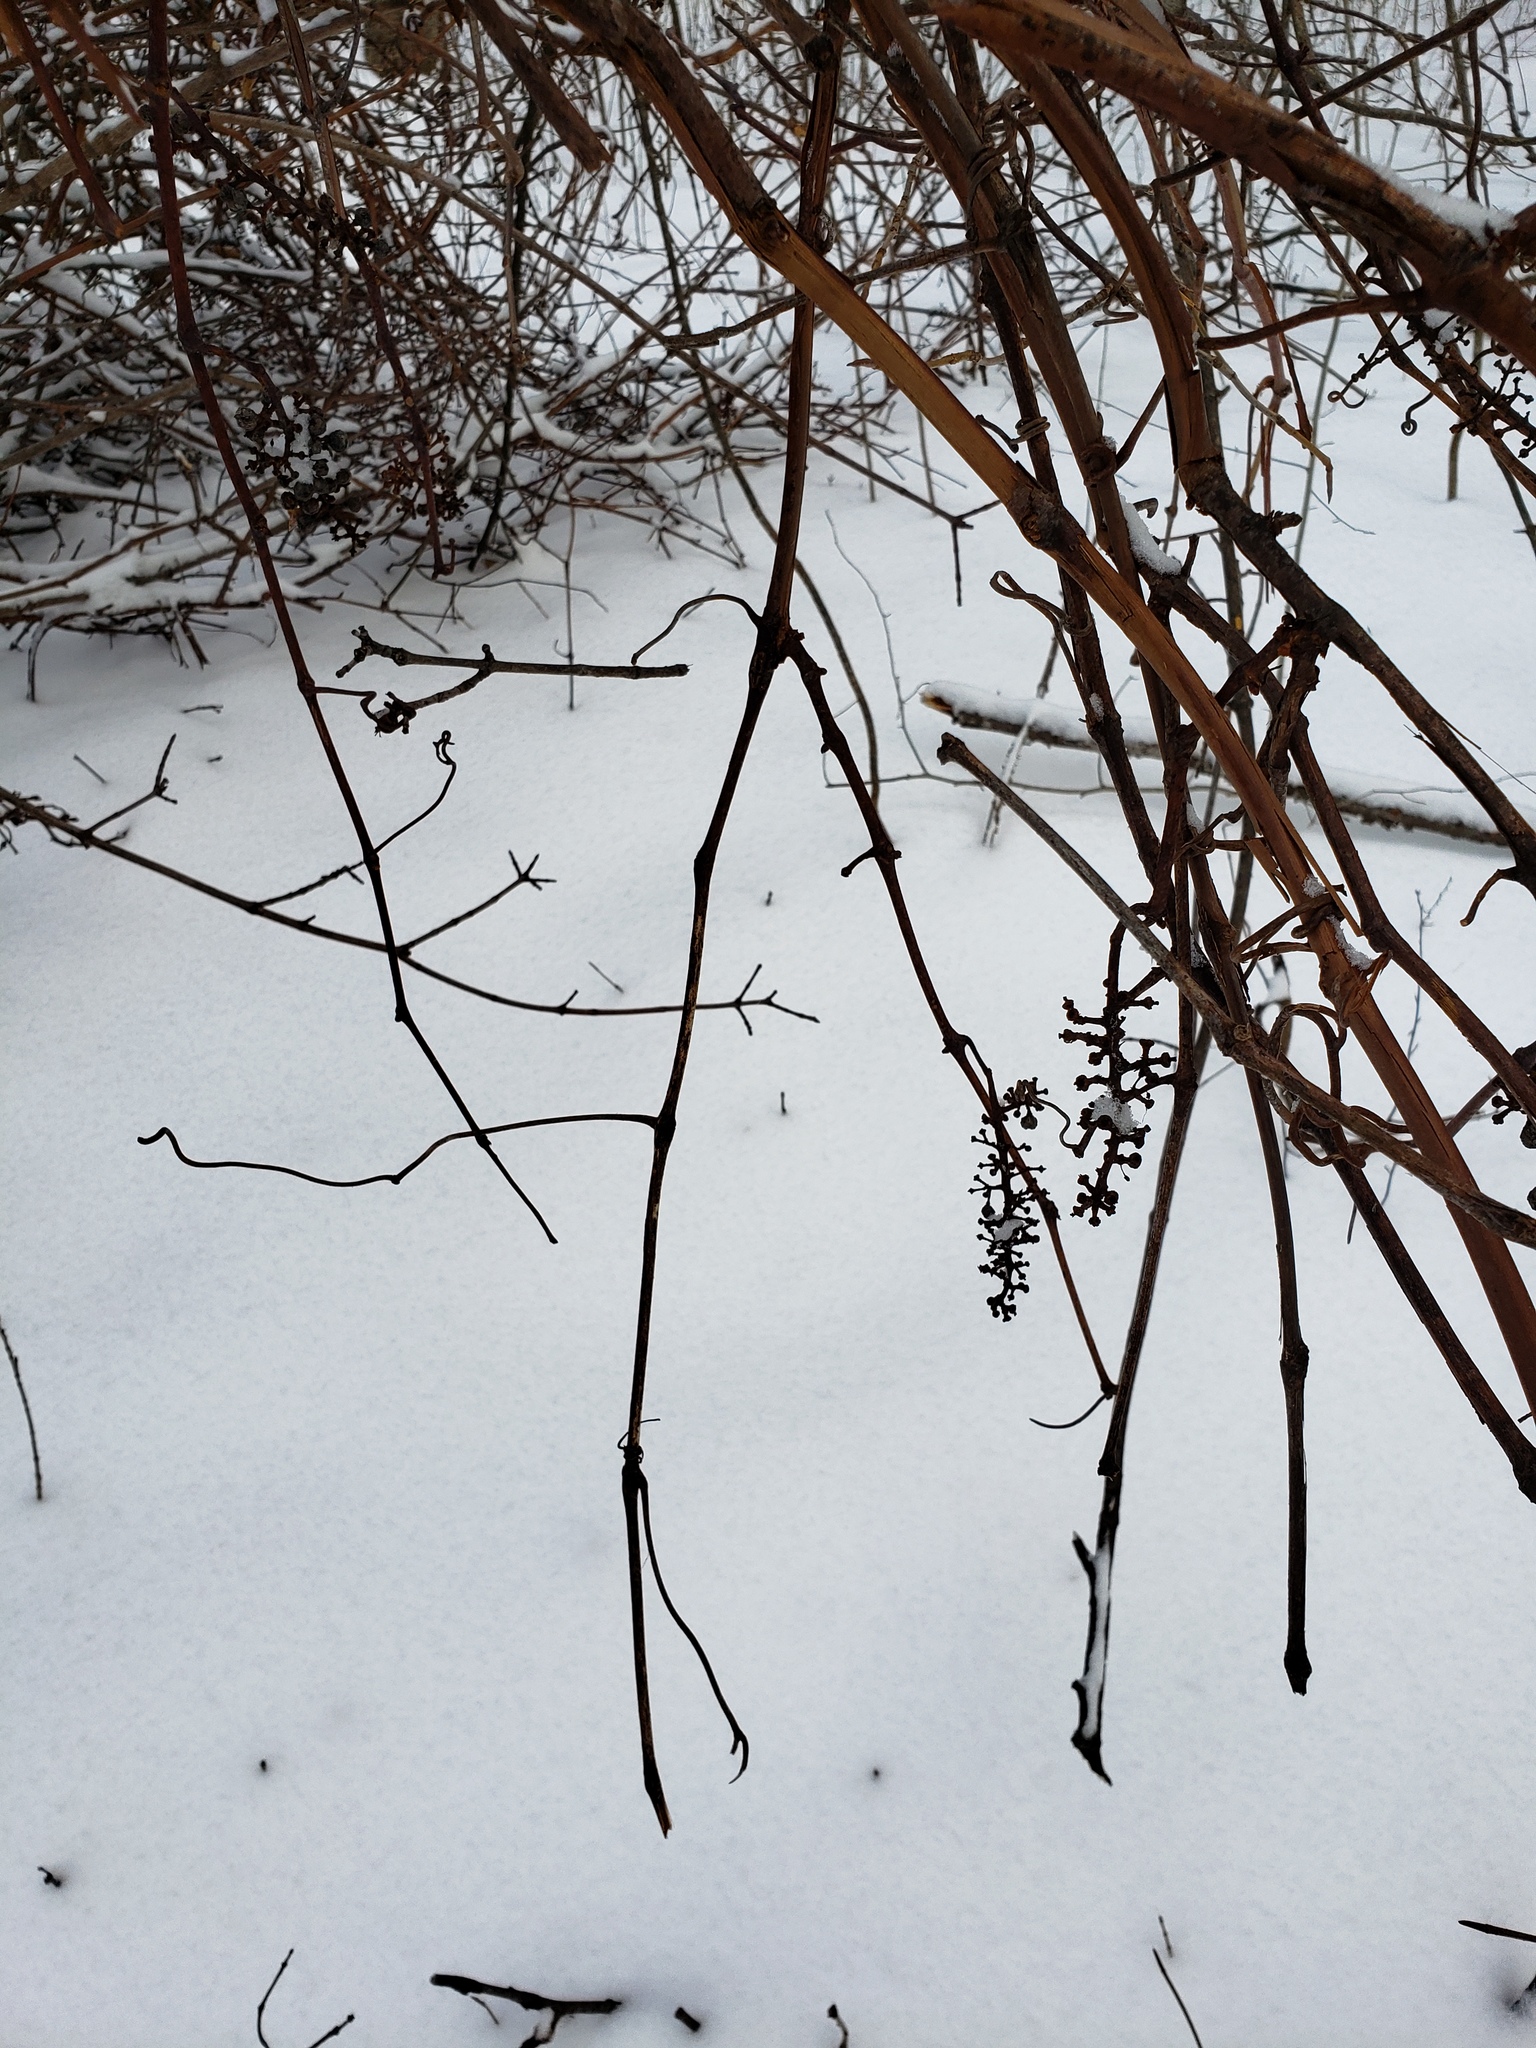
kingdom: Plantae
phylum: Tracheophyta
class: Magnoliopsida
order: Vitales
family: Vitaceae
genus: Vitis
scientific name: Vitis
